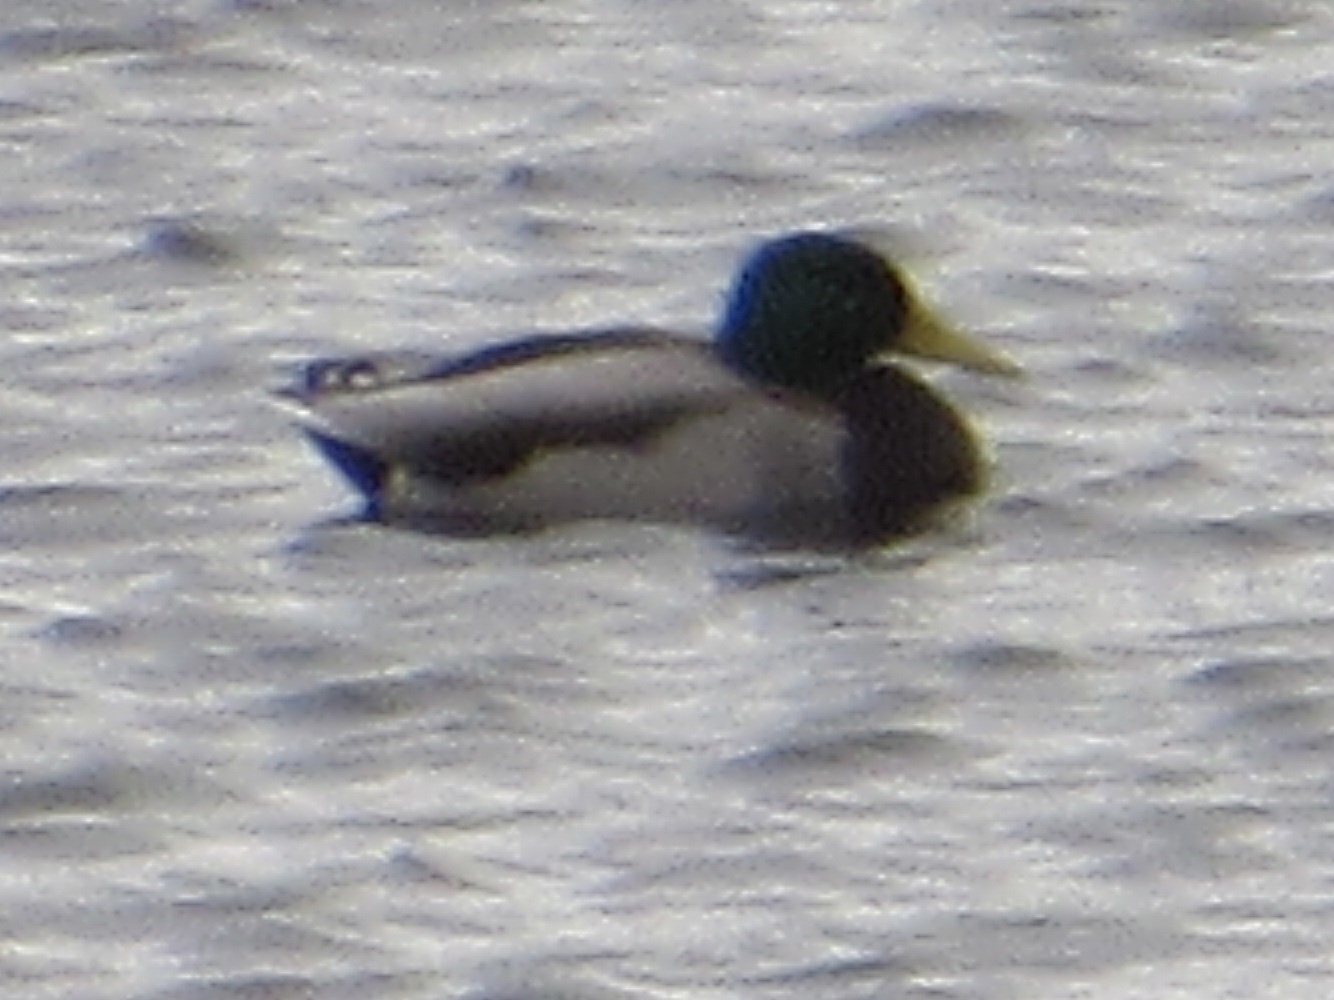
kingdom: Animalia
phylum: Chordata
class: Aves
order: Anseriformes
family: Anatidae
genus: Anas
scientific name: Anas platyrhynchos
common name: Mallard
